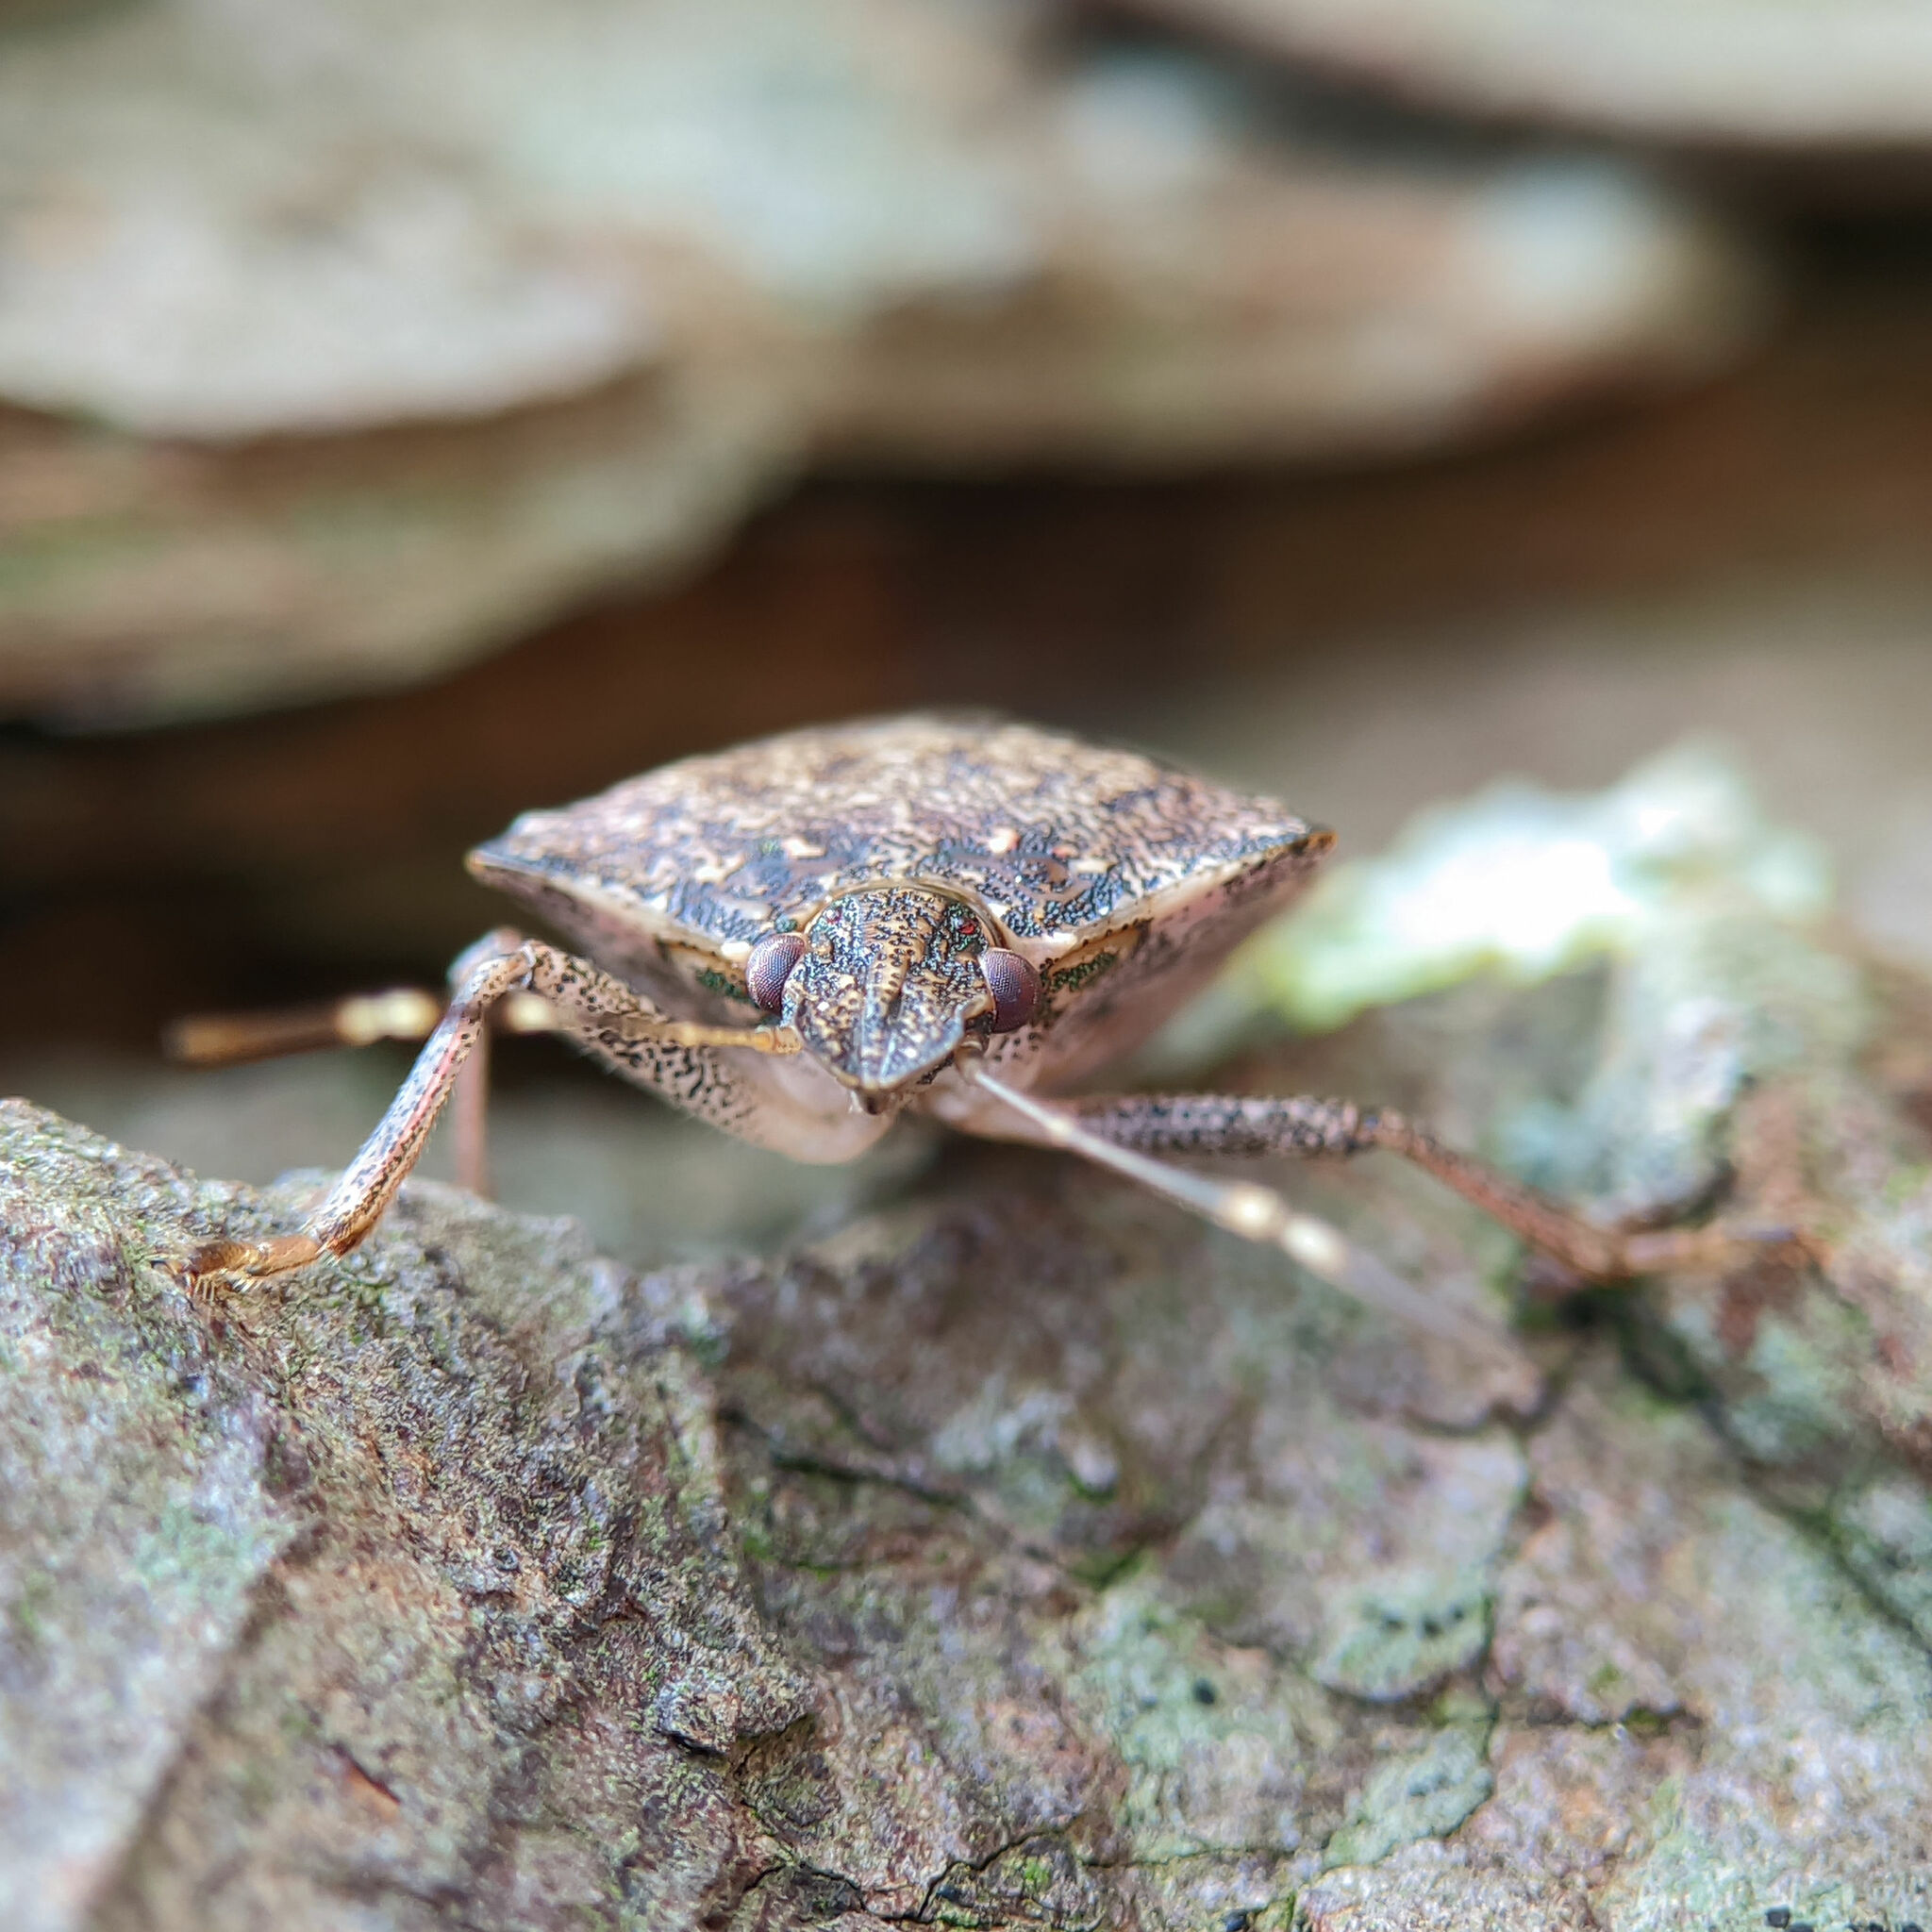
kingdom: Animalia
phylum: Arthropoda
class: Insecta
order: Hemiptera
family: Pentatomidae
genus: Halyomorpha
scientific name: Halyomorpha halys
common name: Brown marmorated stink bug
